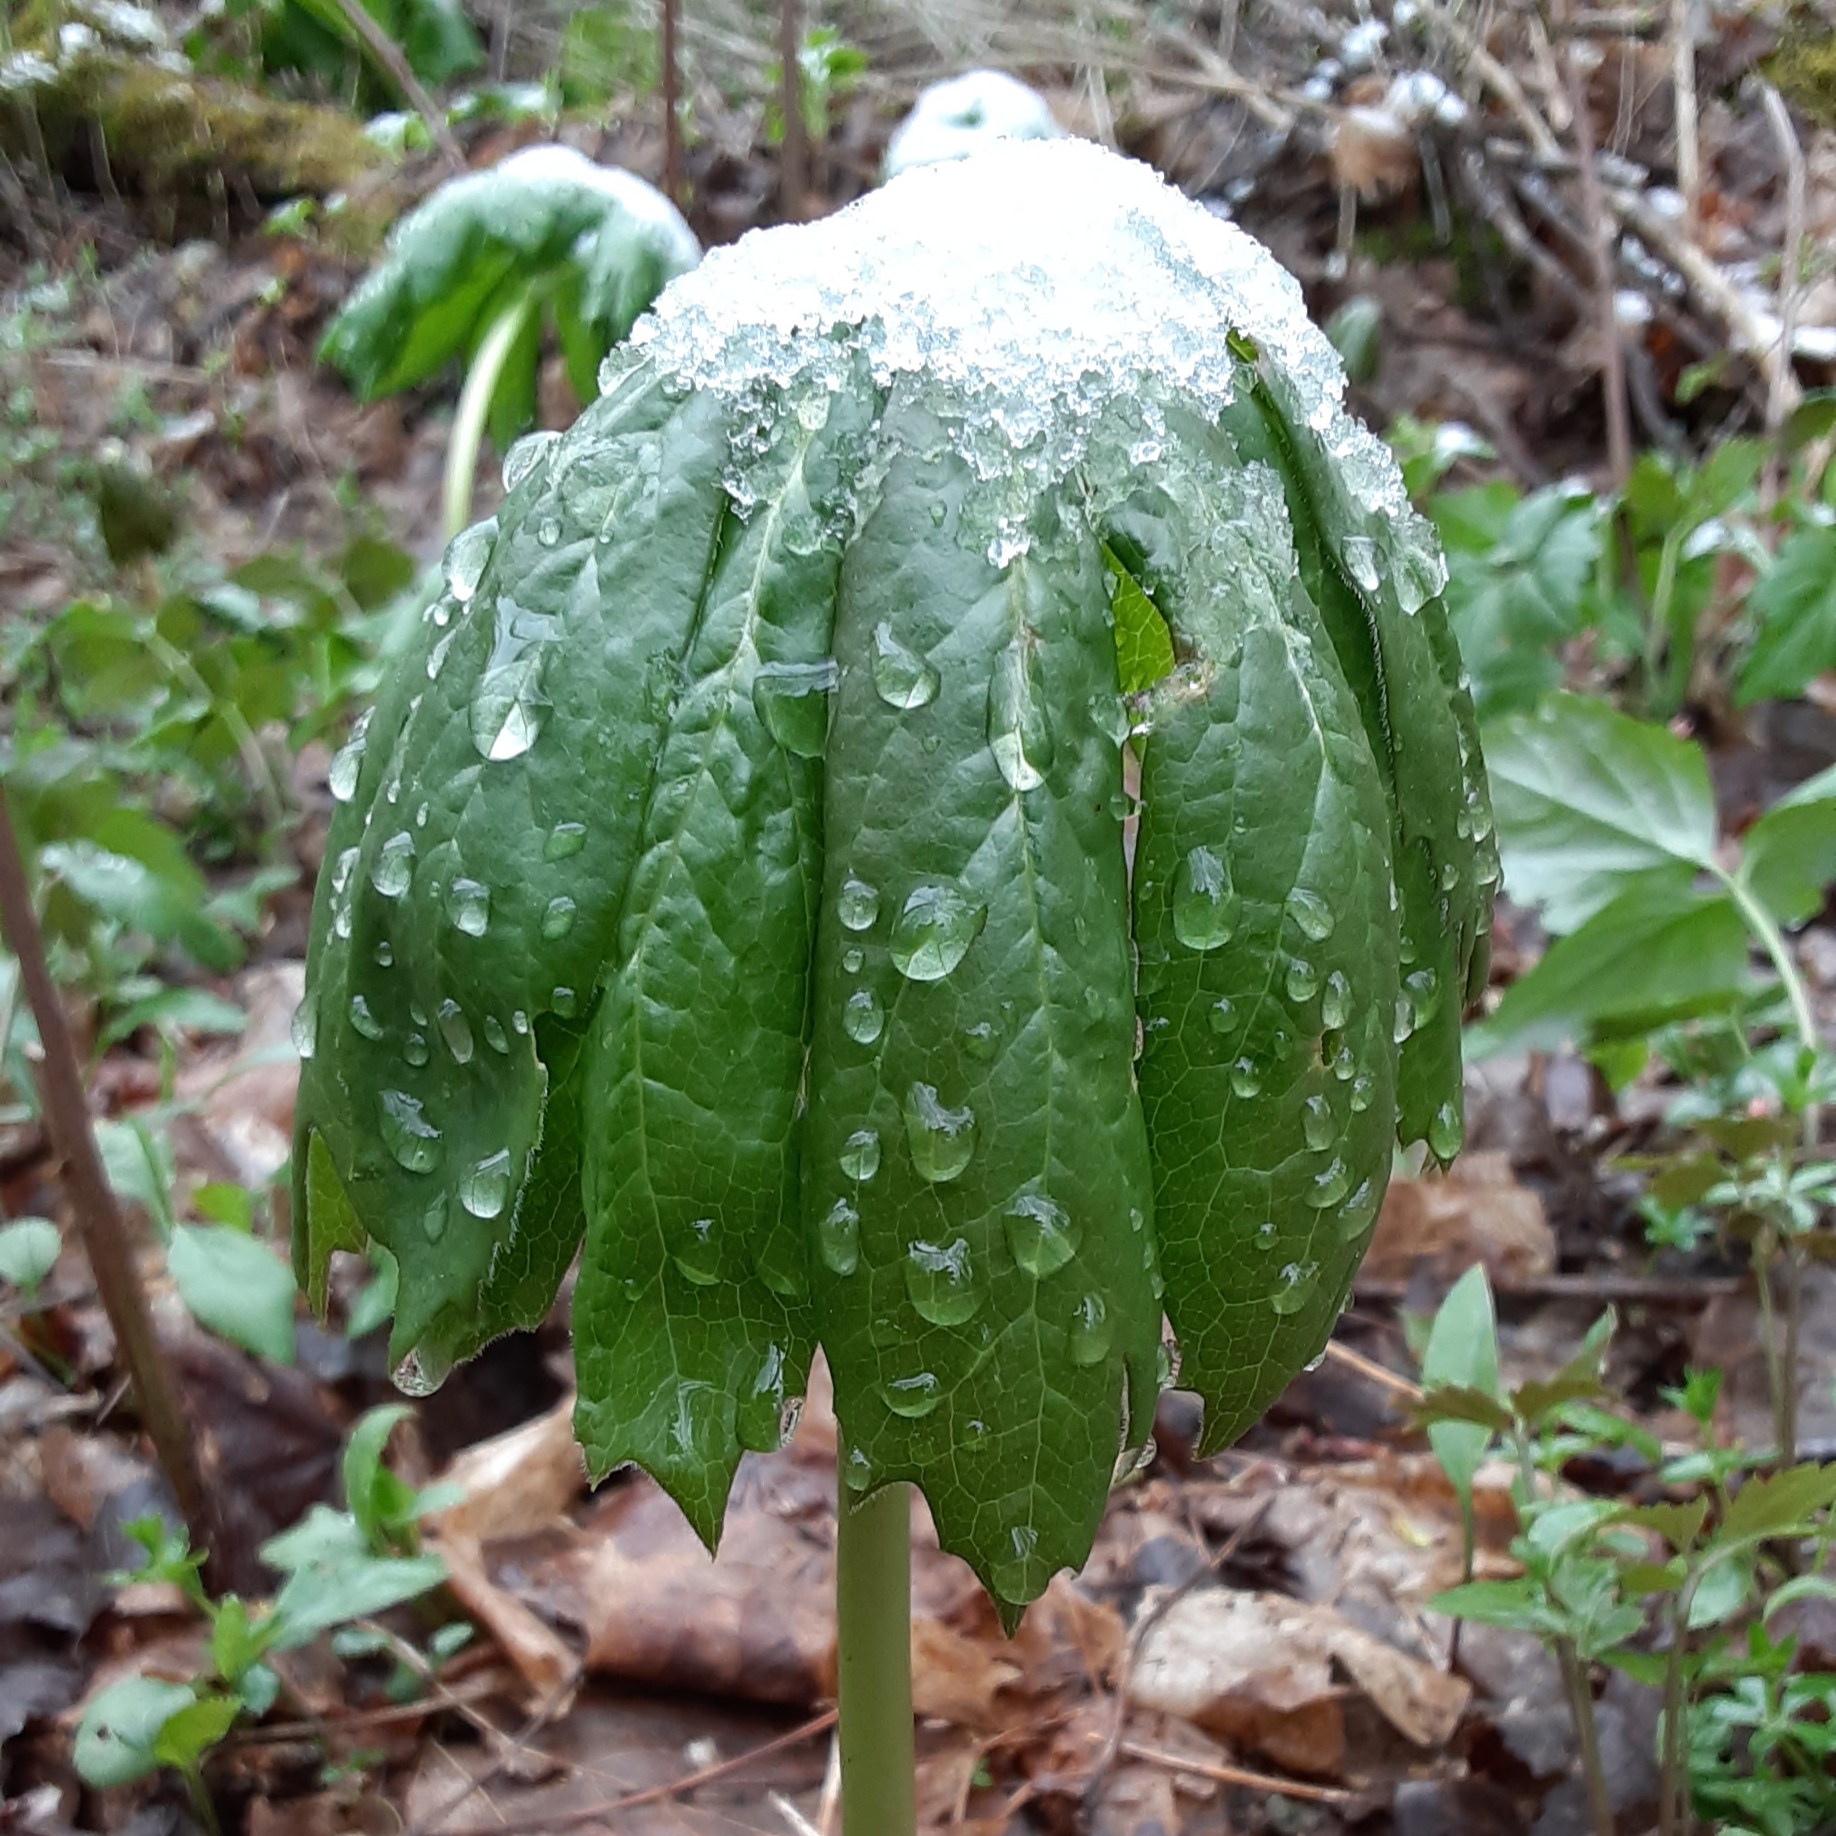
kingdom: Plantae
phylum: Tracheophyta
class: Magnoliopsida
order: Ranunculales
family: Berberidaceae
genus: Podophyllum
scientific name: Podophyllum peltatum
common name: Wild mandrake
